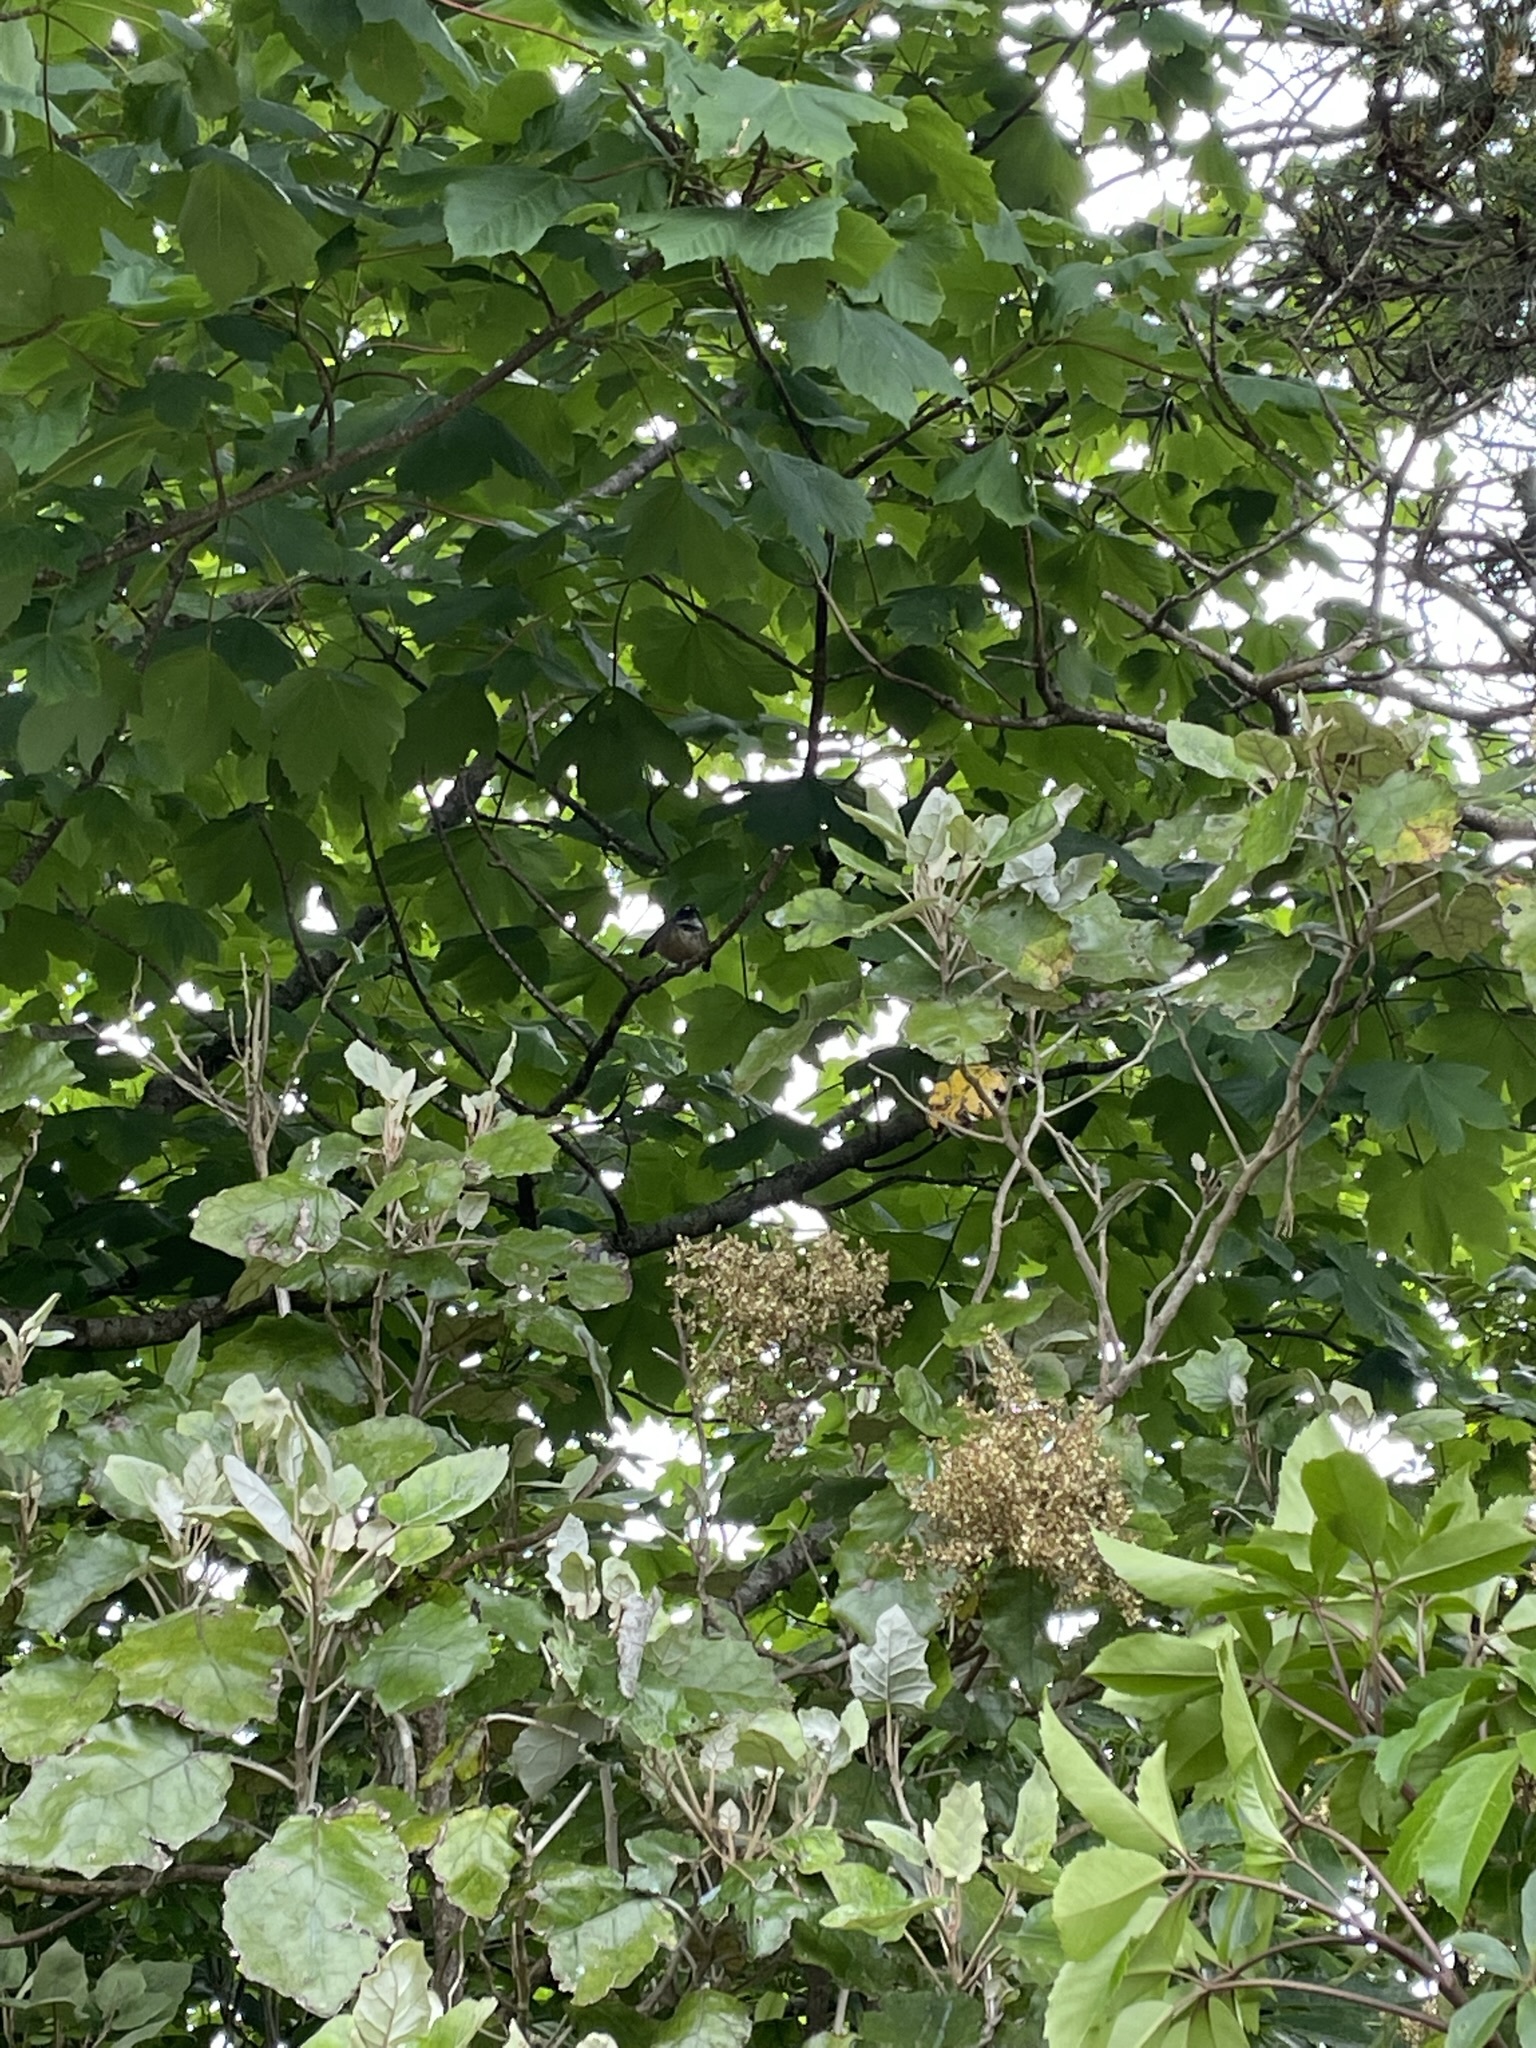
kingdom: Animalia
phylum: Chordata
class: Aves
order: Passeriformes
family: Rhipiduridae
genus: Rhipidura
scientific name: Rhipidura fuliginosa
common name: New zealand fantail
